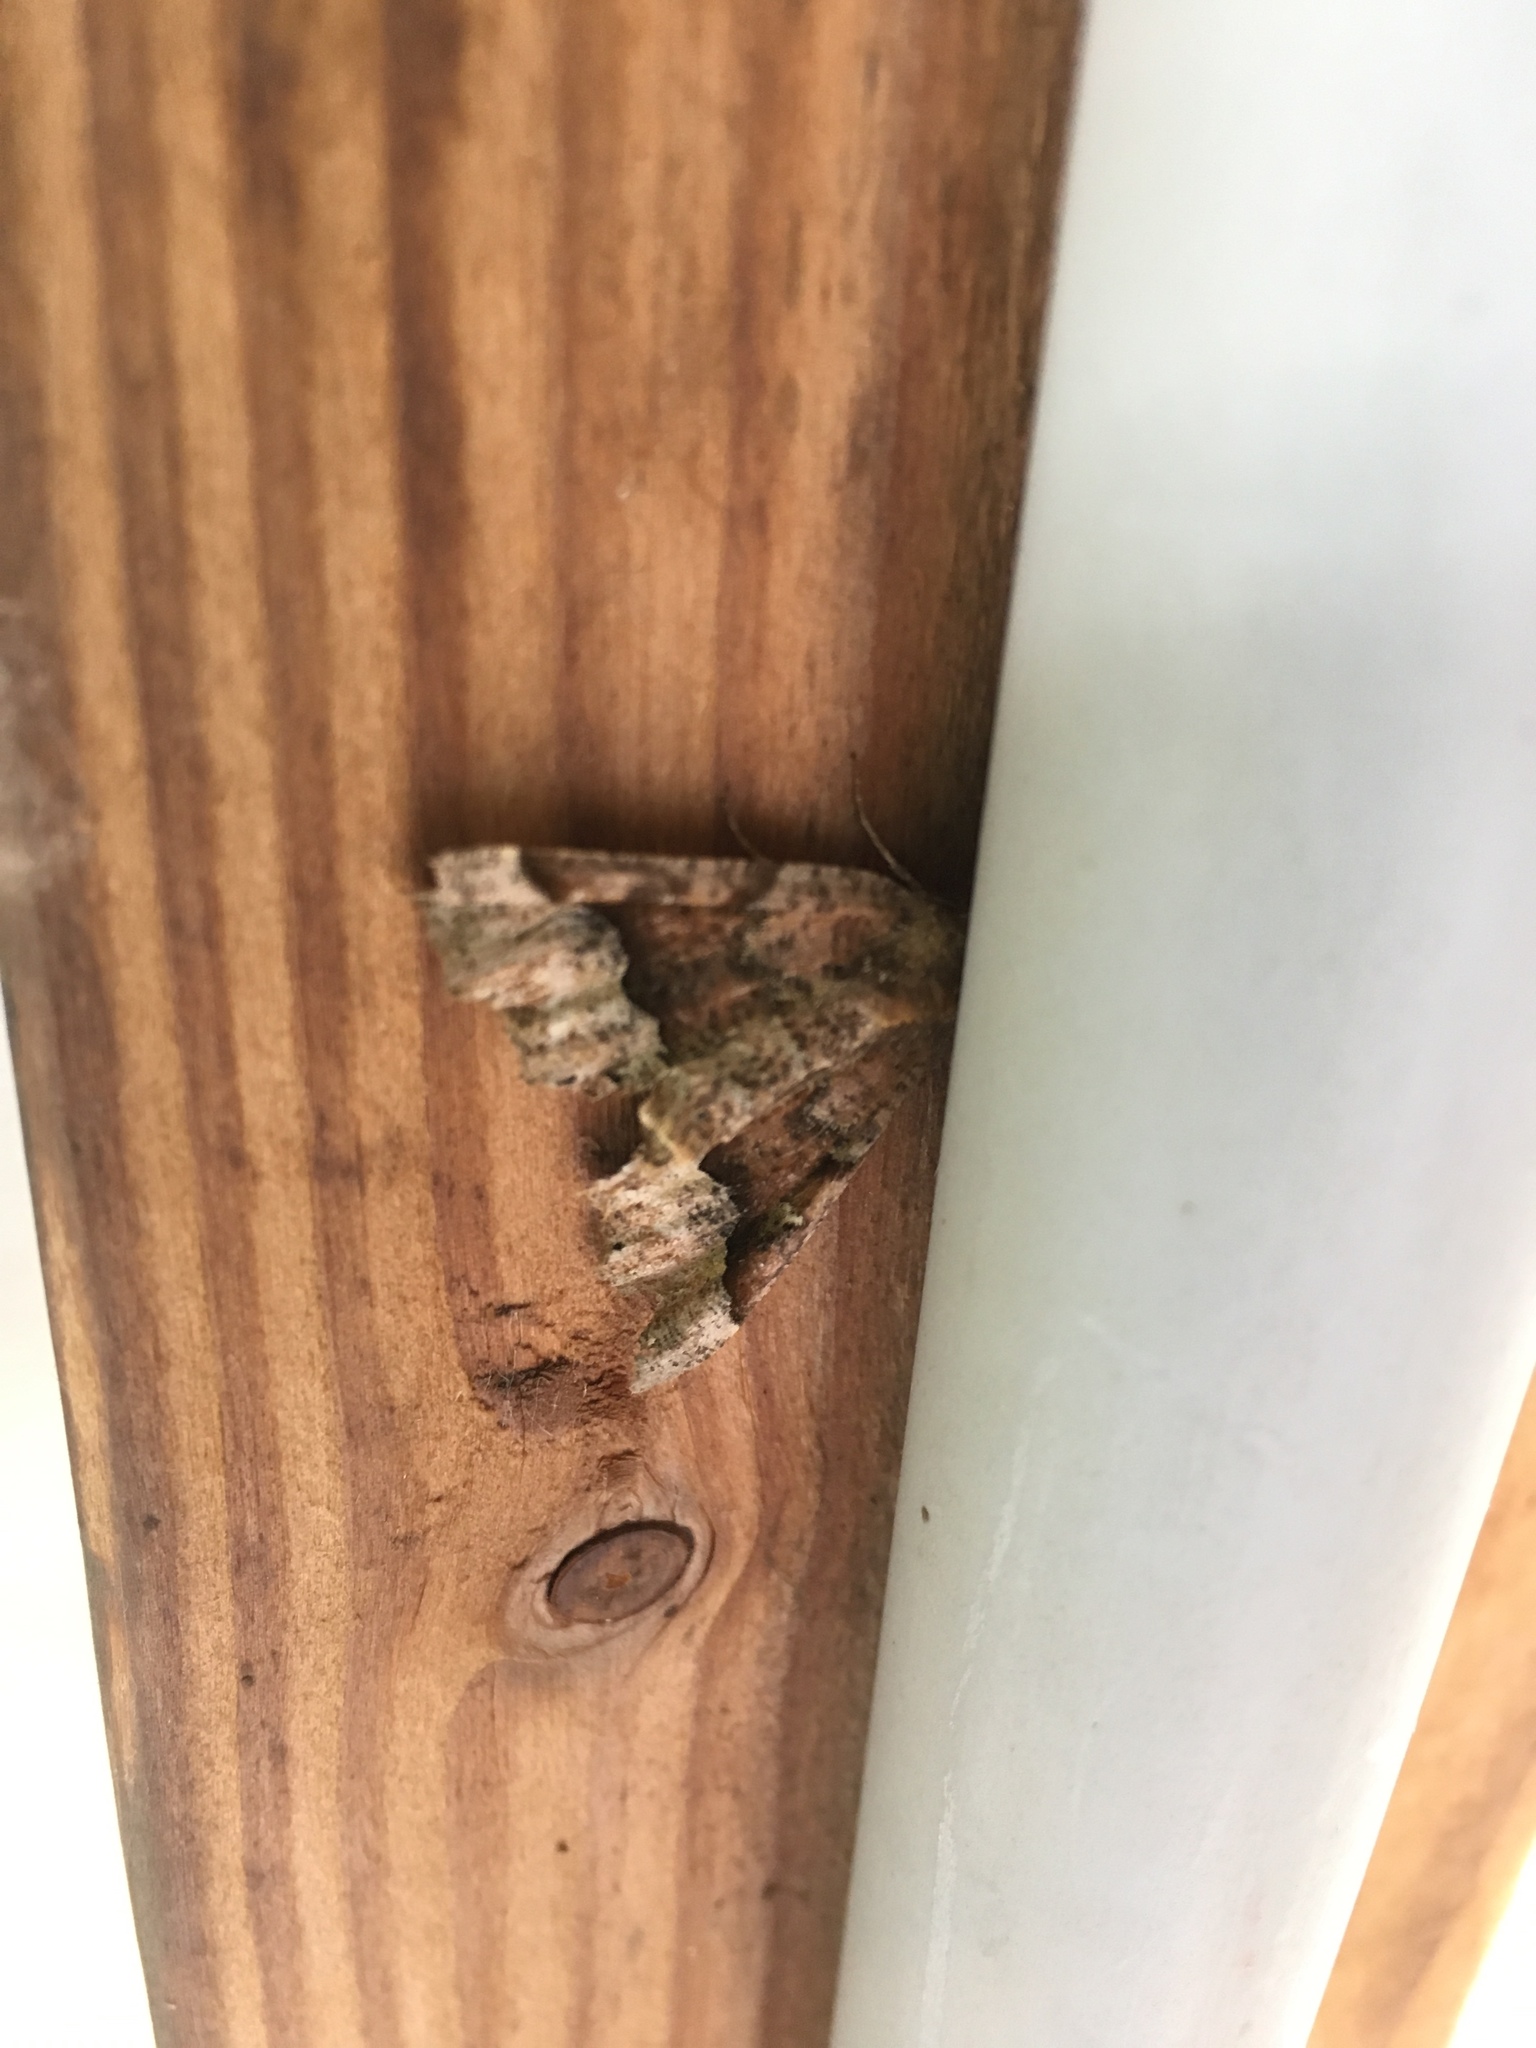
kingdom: Animalia
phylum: Arthropoda
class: Insecta
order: Lepidoptera
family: Geometridae
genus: Pero
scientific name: Pero morrisonaria
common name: Morrison's pero
